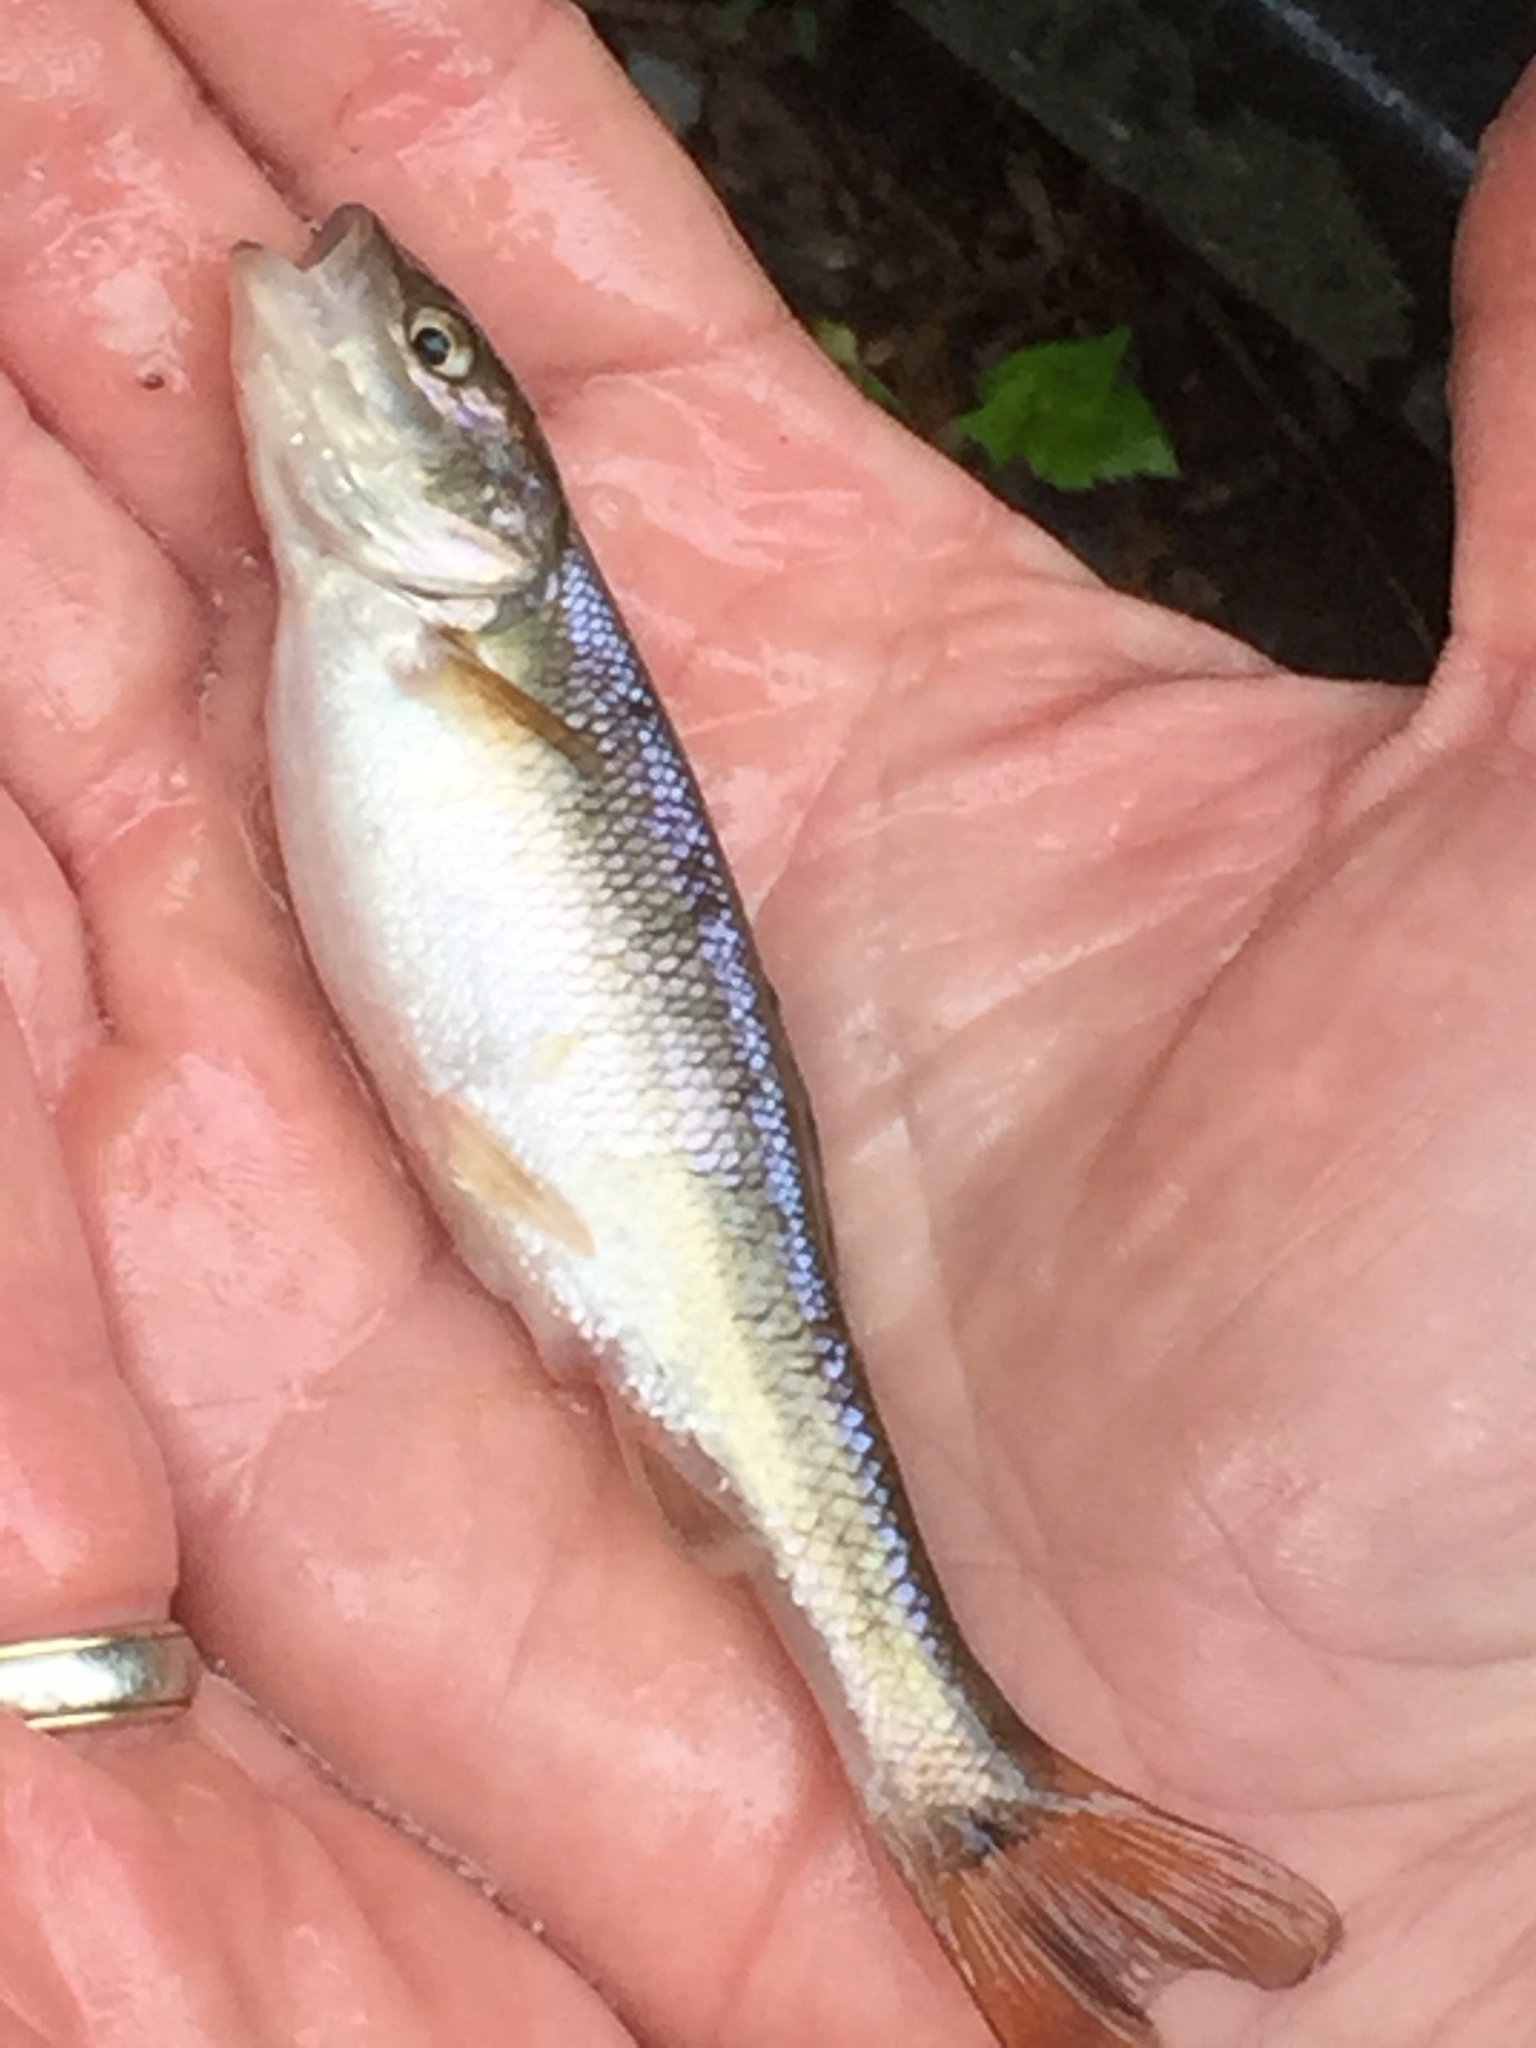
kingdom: Animalia
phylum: Chordata
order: Cypriniformes
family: Cyprinidae
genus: Semotilus
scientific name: Semotilus atromaculatus
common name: Creek chub
